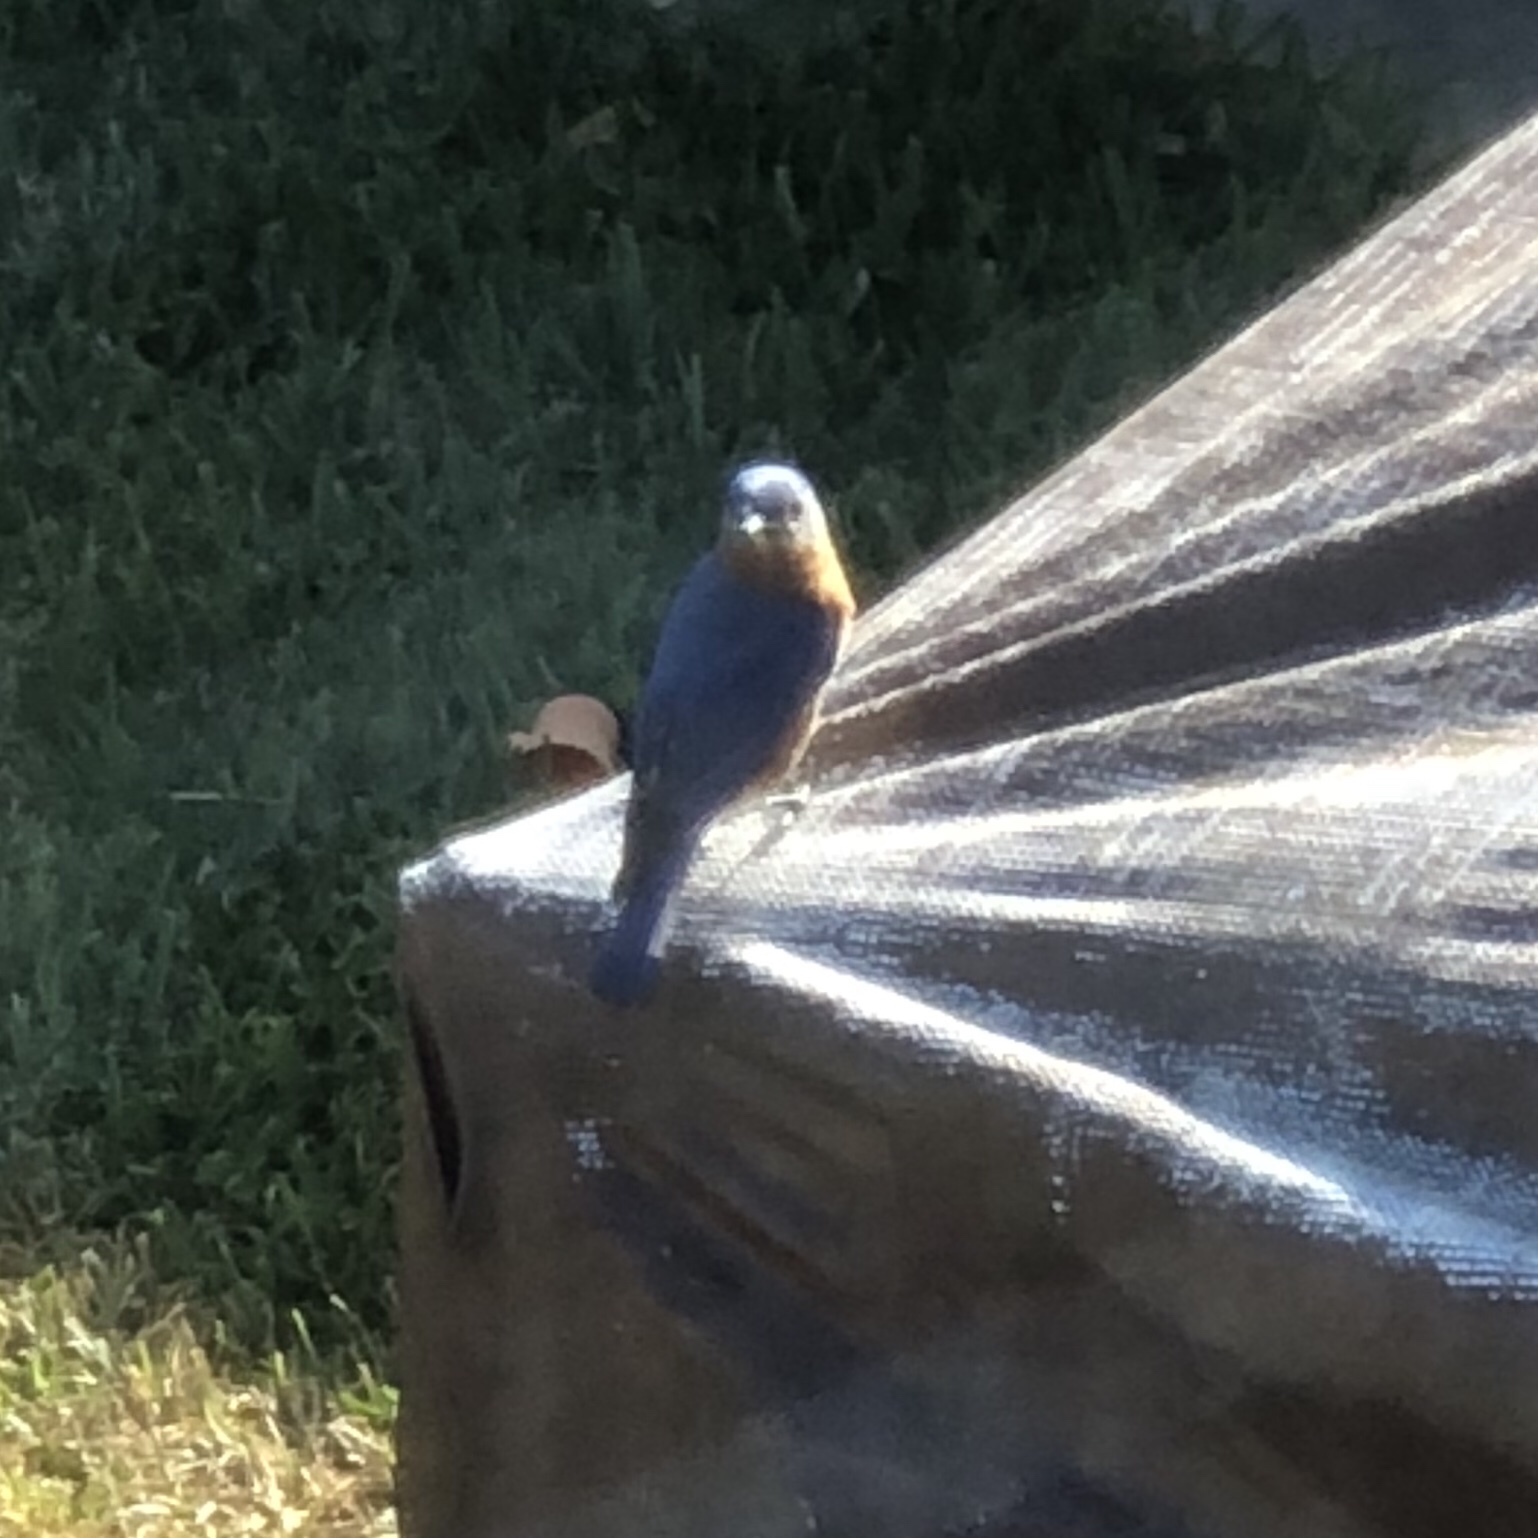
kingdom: Animalia
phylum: Chordata
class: Aves
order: Passeriformes
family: Turdidae
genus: Sialia
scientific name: Sialia sialis
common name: Eastern bluebird
